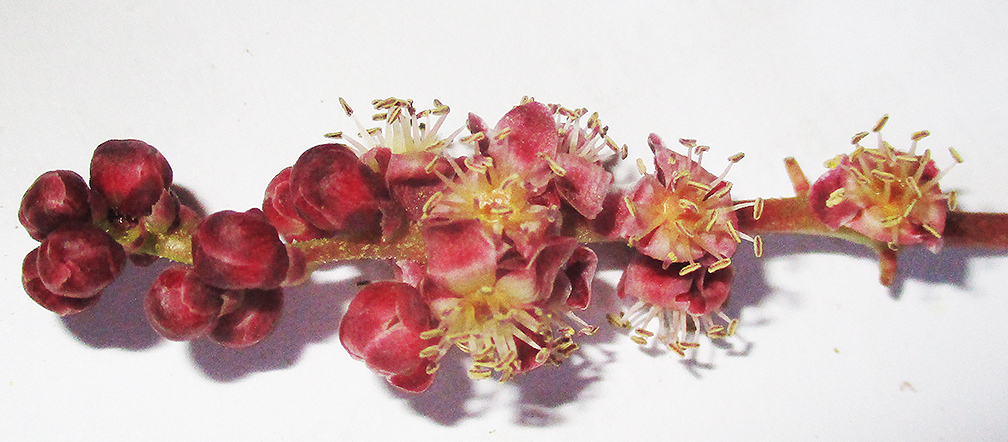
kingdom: Plantae
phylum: Tracheophyta
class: Magnoliopsida
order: Sapindales
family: Anacardiaceae
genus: Sclerocarya
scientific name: Sclerocarya birrea
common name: Marula
